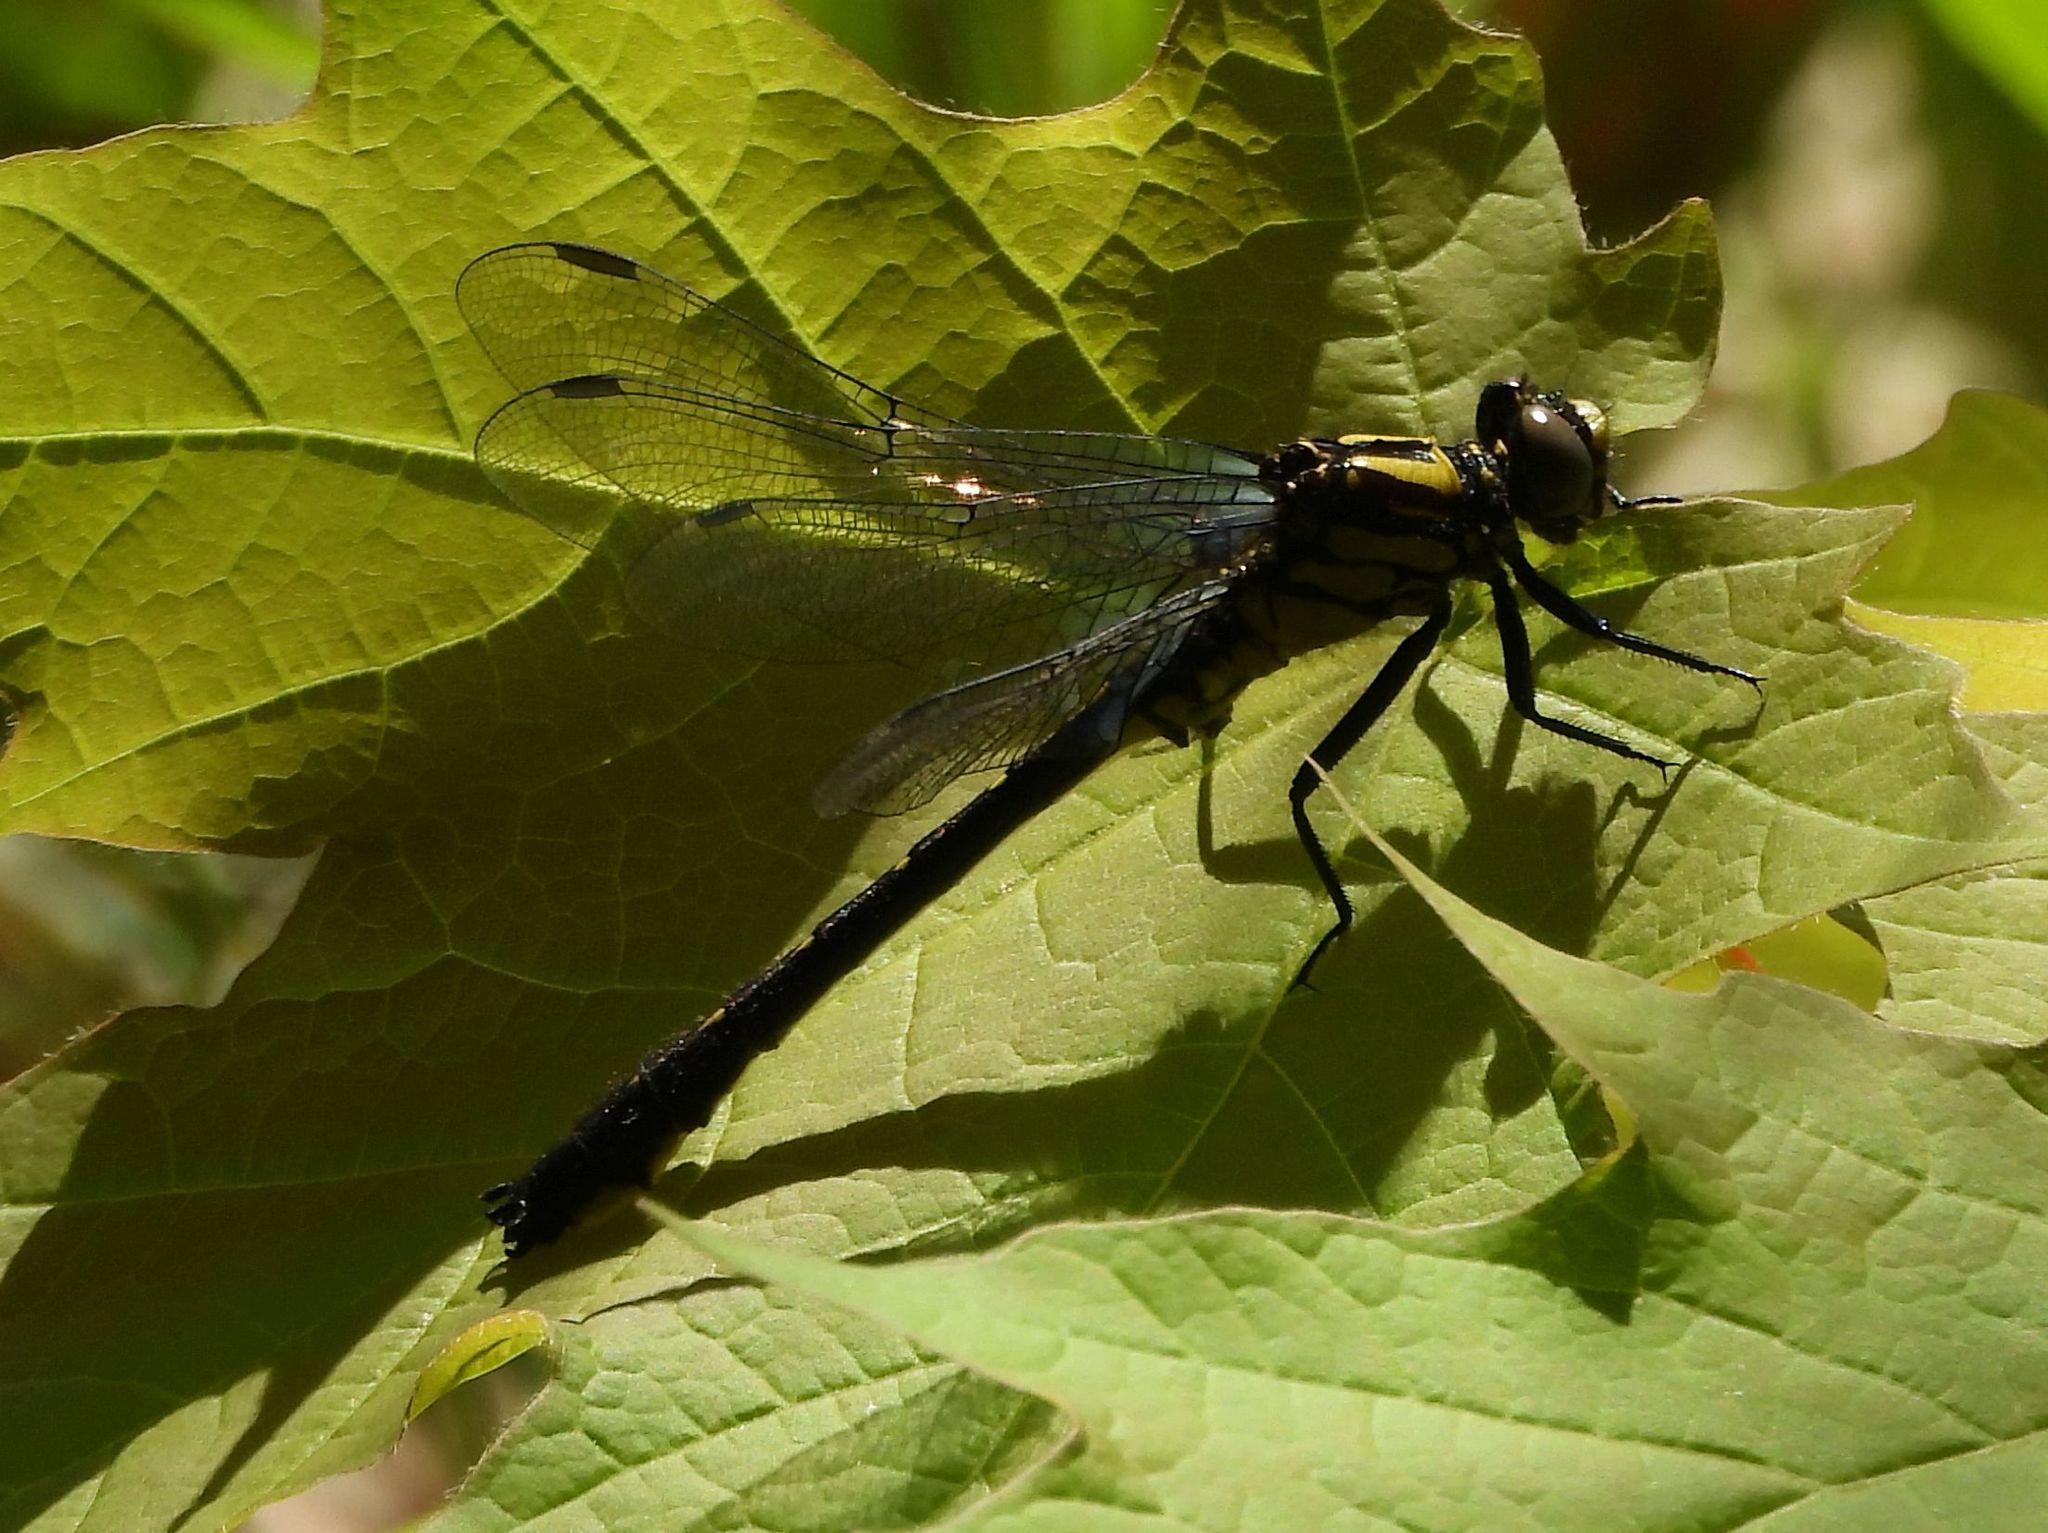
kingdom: Animalia
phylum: Arthropoda
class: Insecta
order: Odonata
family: Gomphidae
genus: Hylogomphus
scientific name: Hylogomphus adelphus
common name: Mustached clubtail
